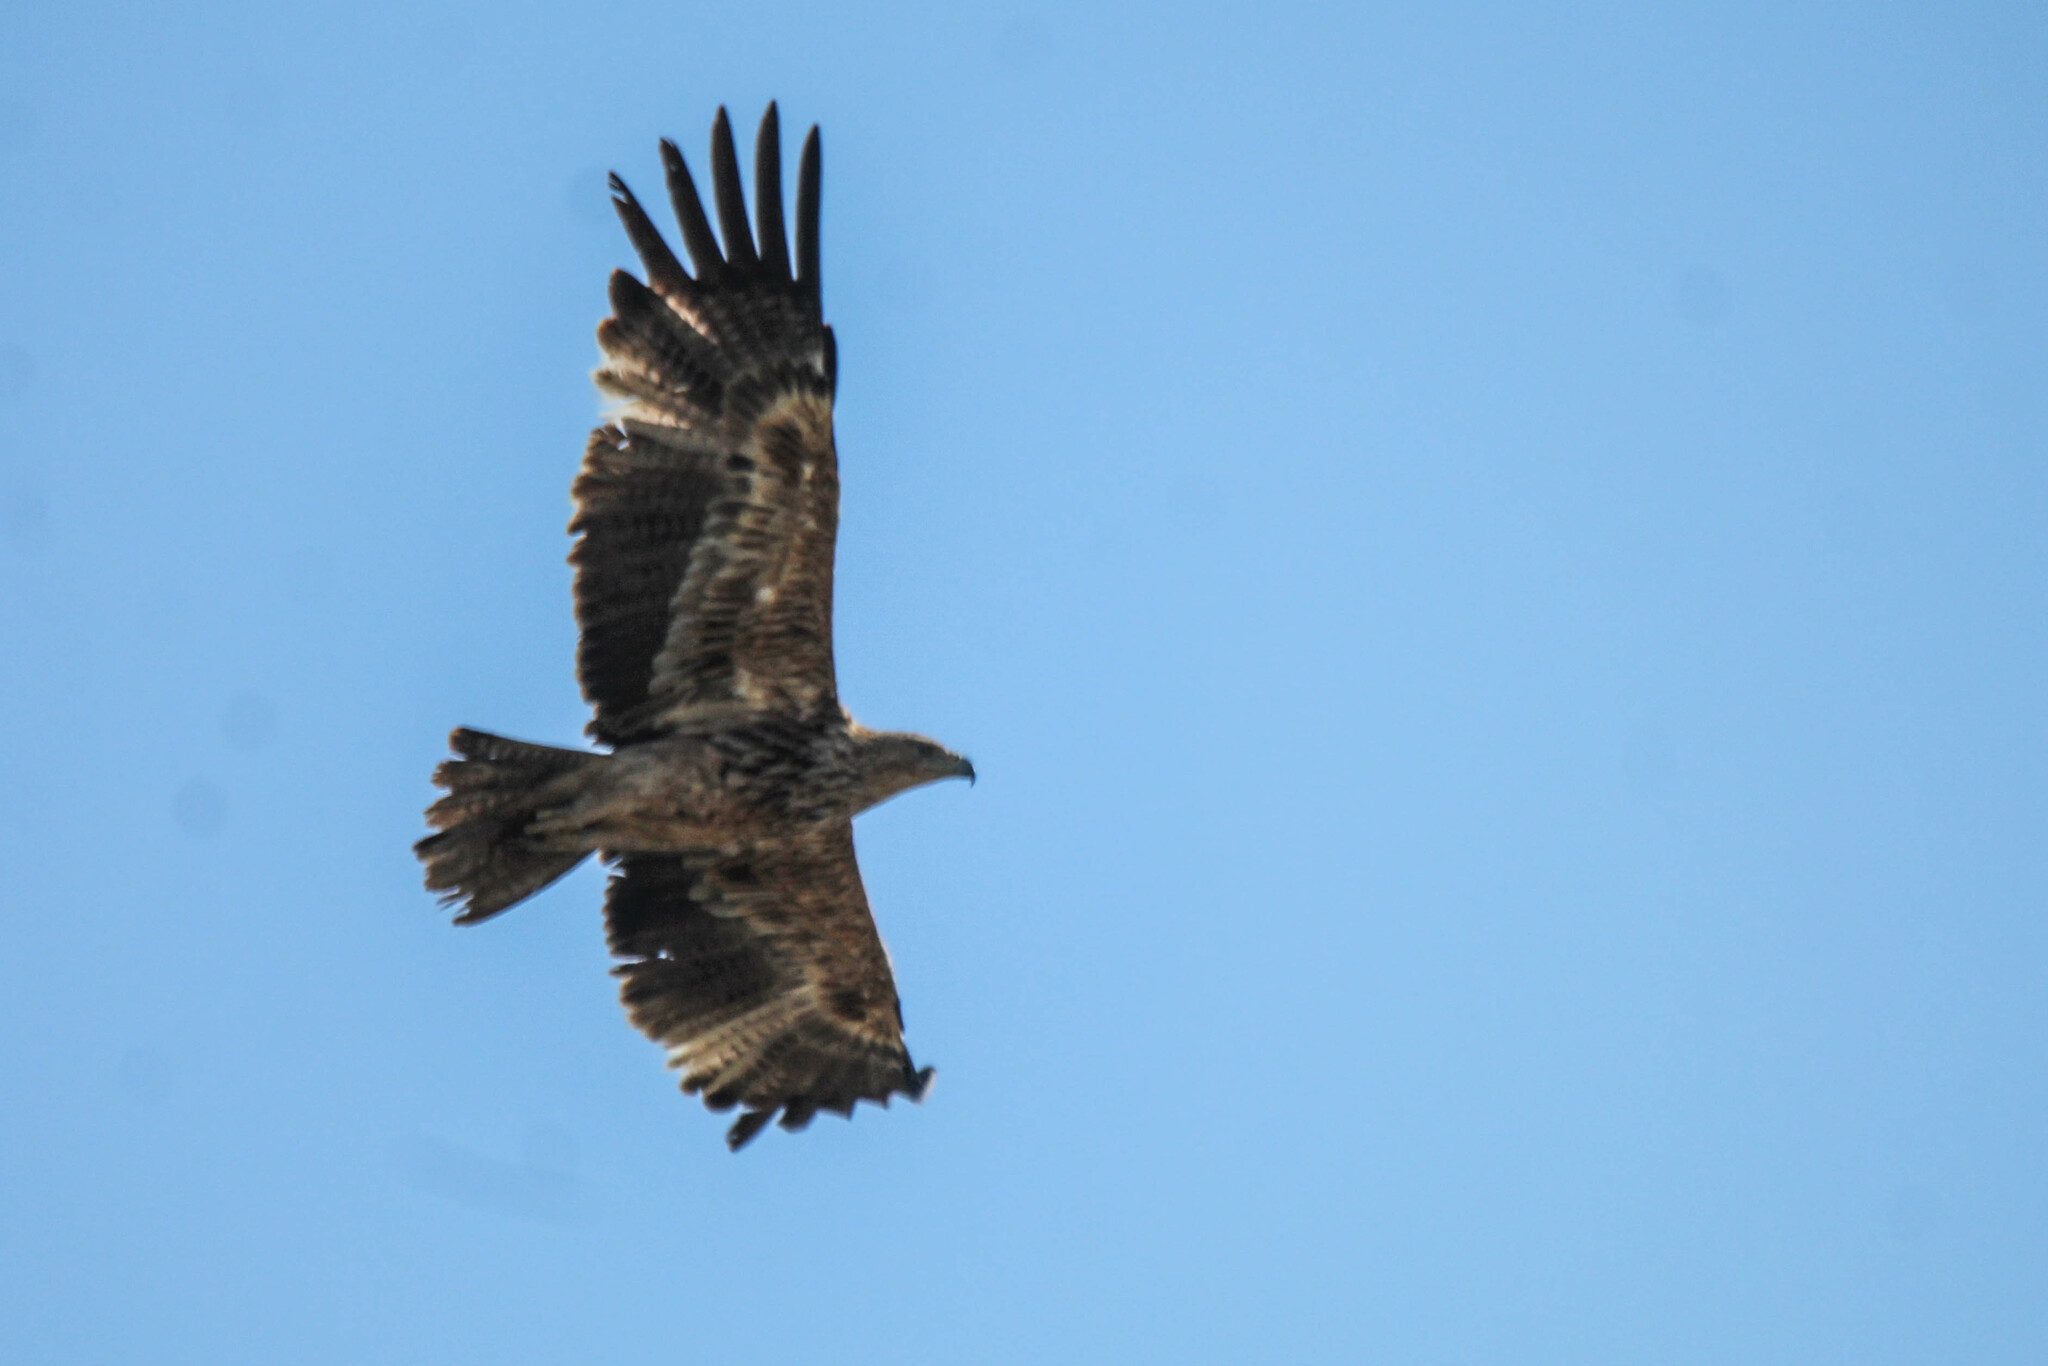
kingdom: Animalia
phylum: Chordata
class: Aves
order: Accipitriformes
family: Accipitridae
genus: Aquila
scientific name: Aquila heliaca
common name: Eastern imperial eagle
